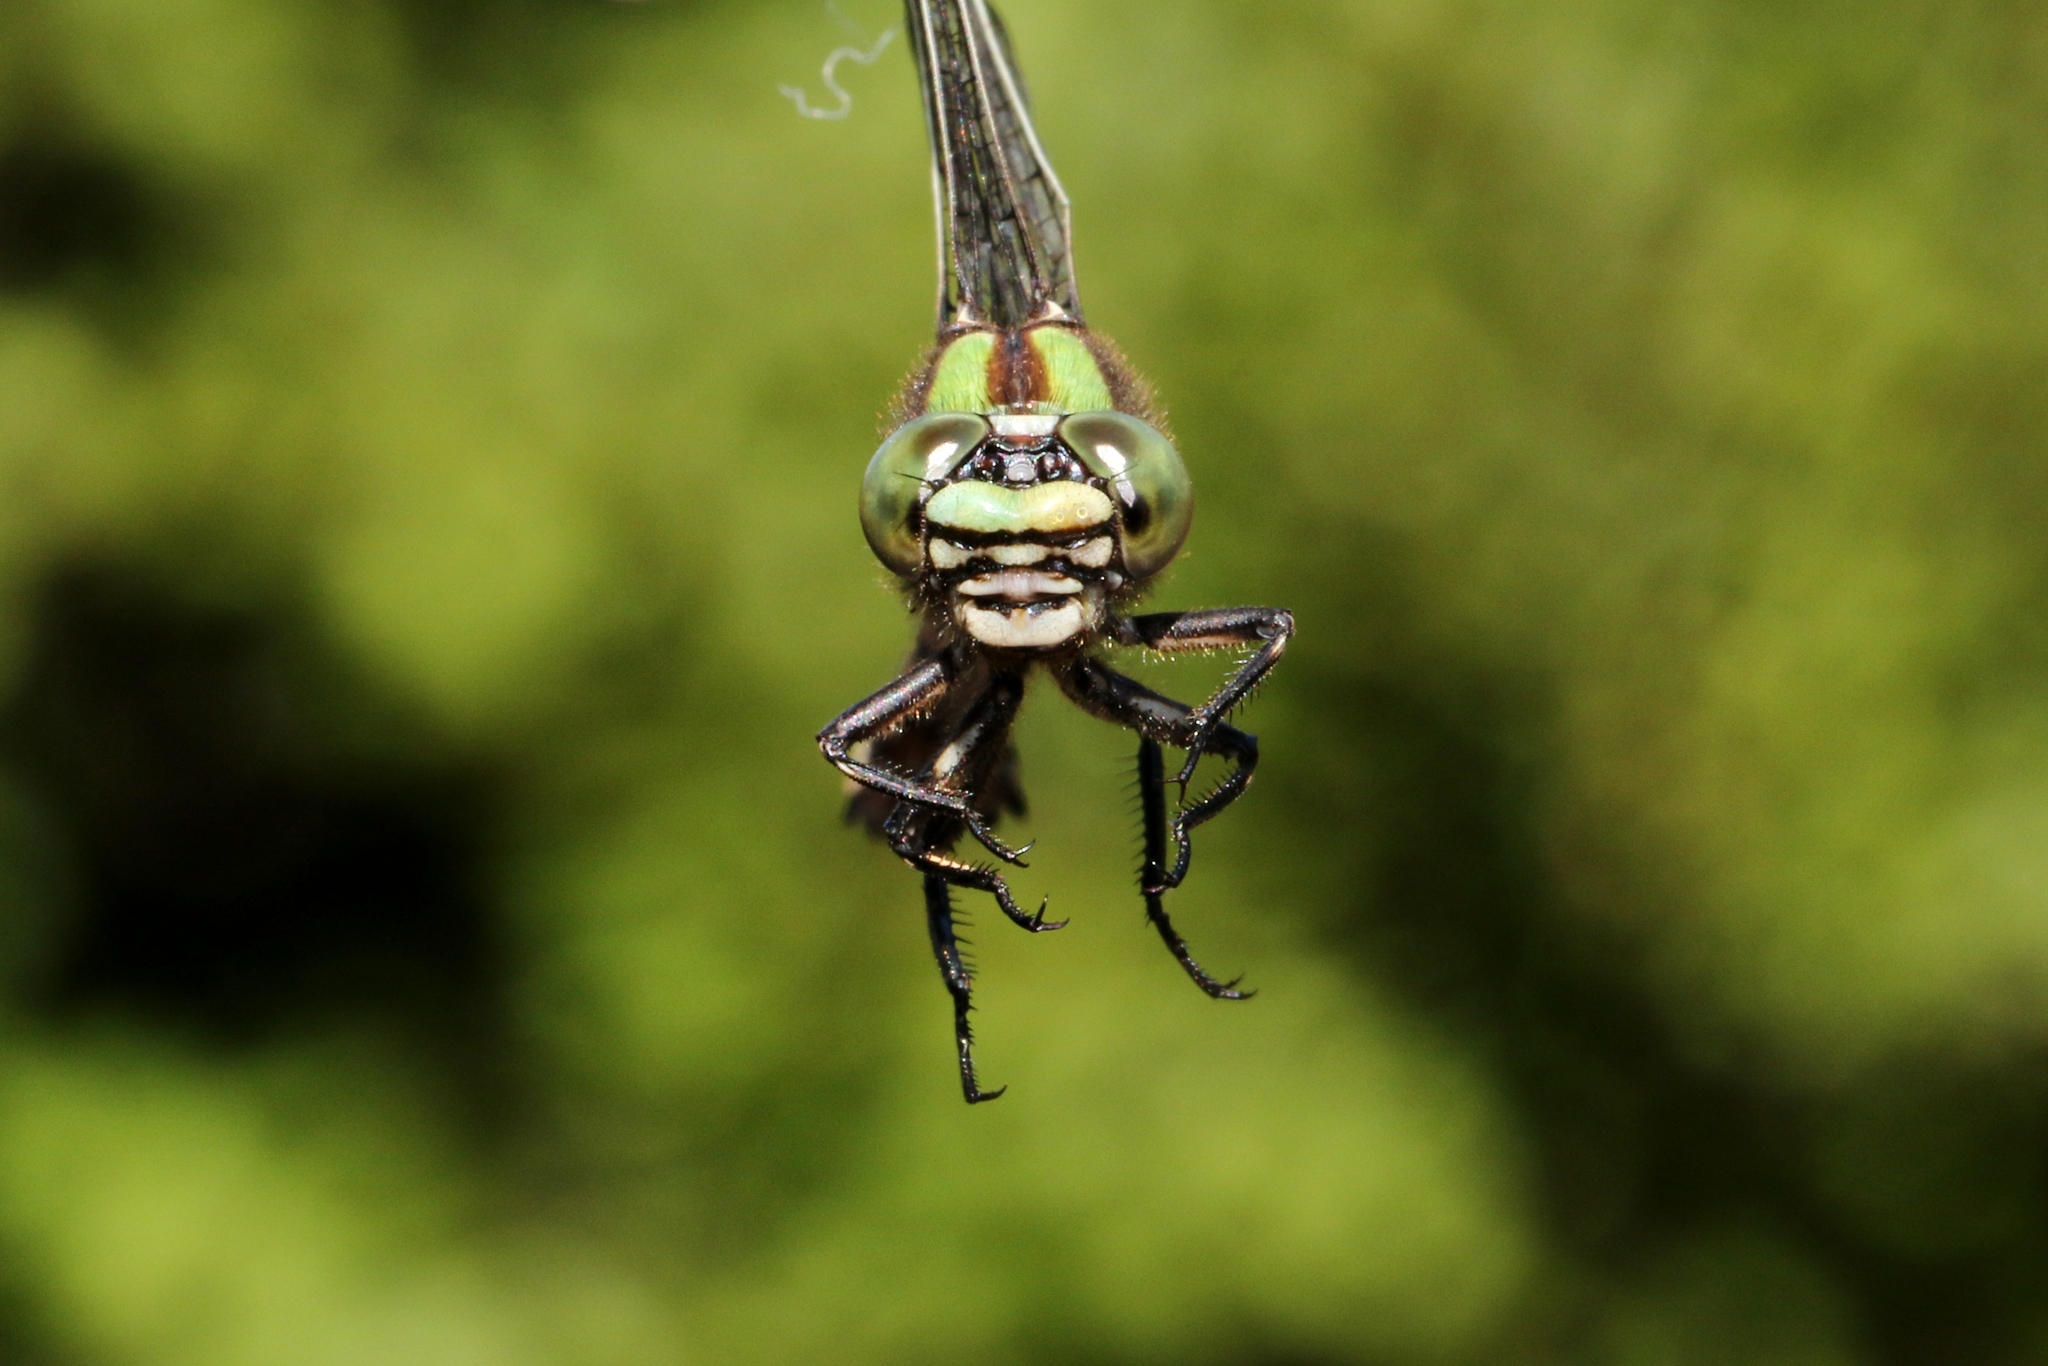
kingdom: Animalia
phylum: Arthropoda
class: Insecta
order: Odonata
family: Gomphidae
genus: Ophiogomphus
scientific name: Ophiogomphus colubrinus
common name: Boreal snaketail
